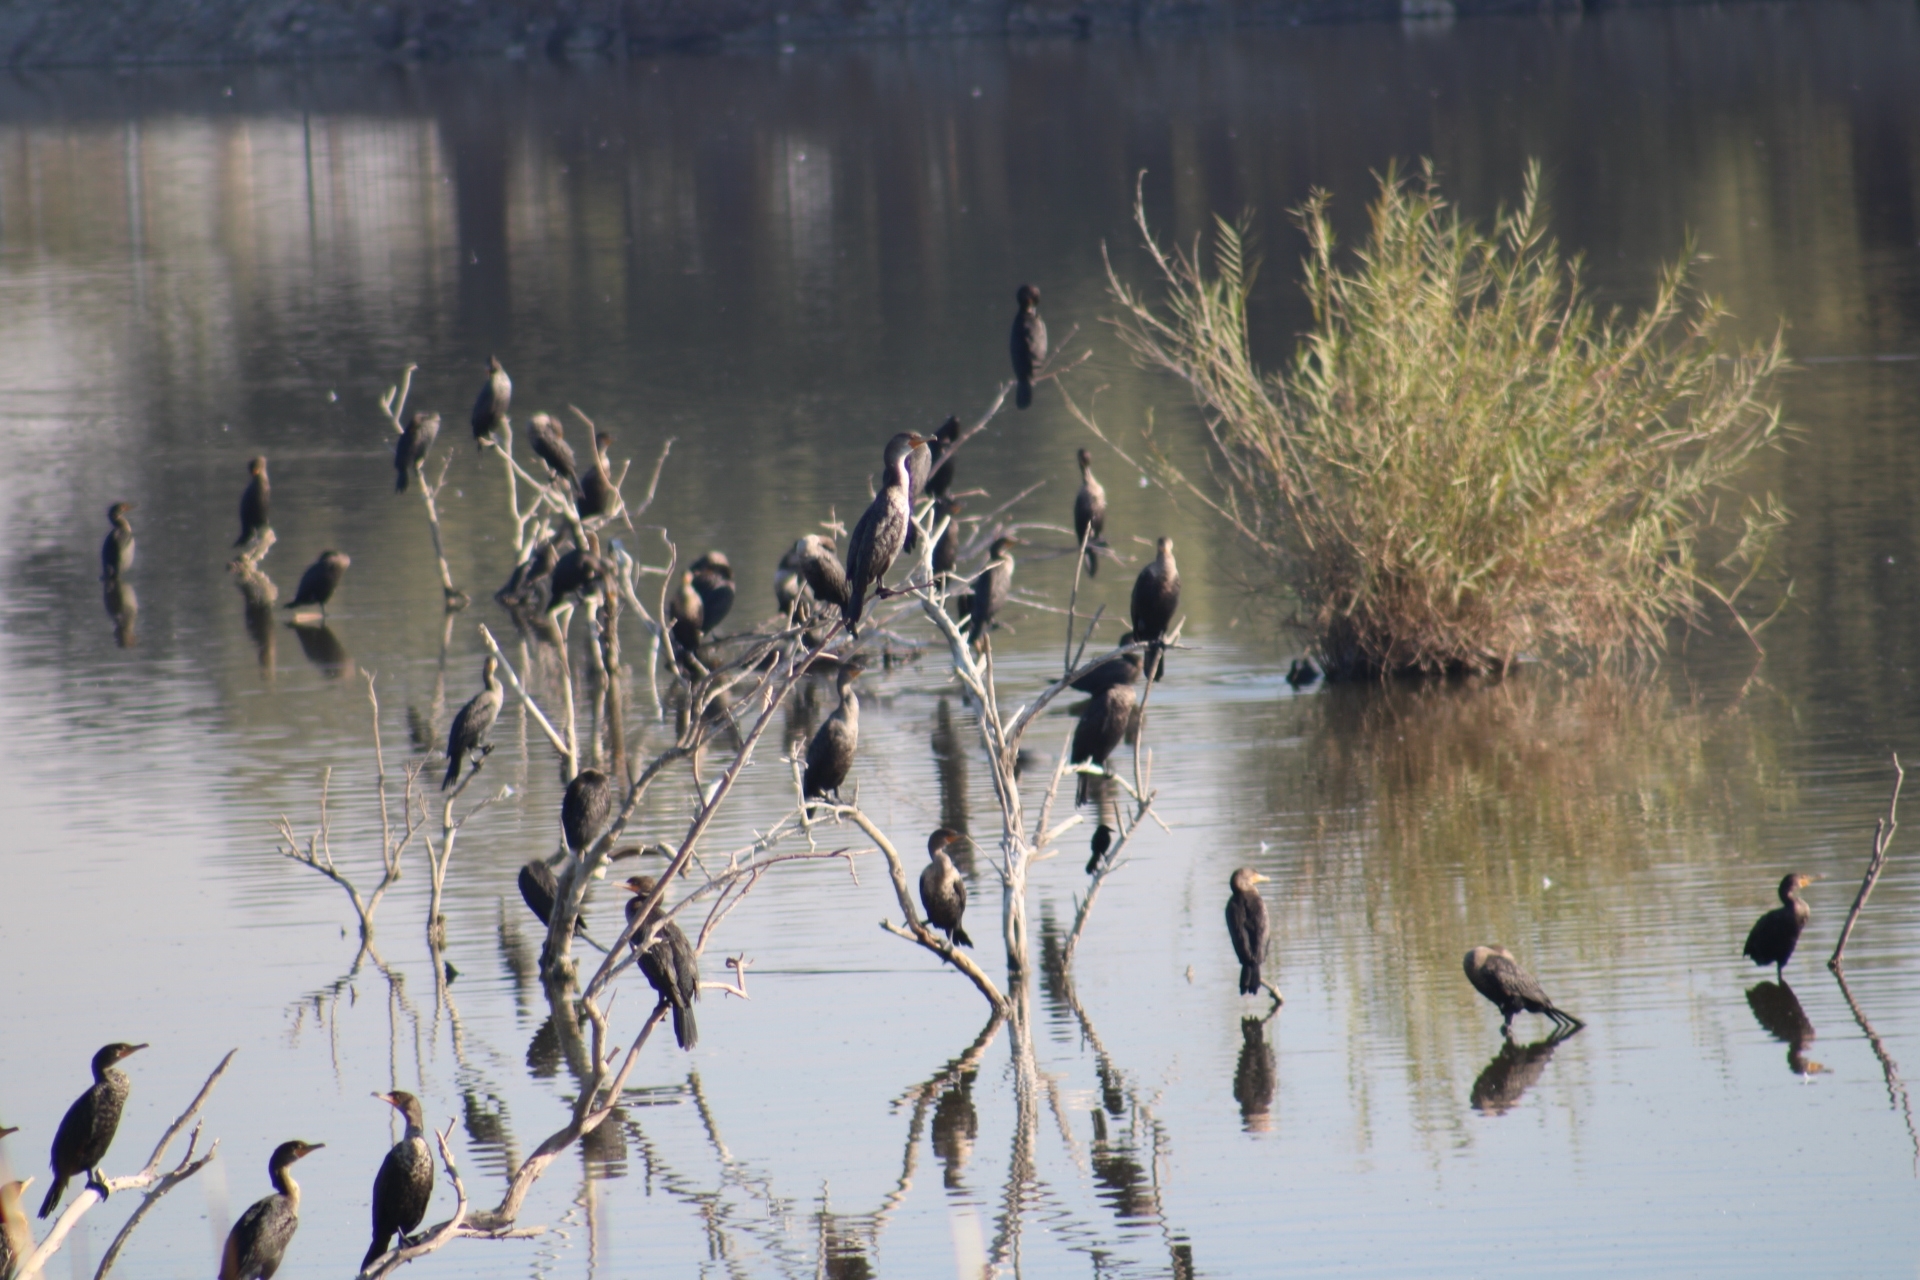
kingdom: Animalia
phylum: Chordata
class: Aves
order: Suliformes
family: Phalacrocoracidae
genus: Phalacrocorax
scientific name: Phalacrocorax auritus
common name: Double-crested cormorant
